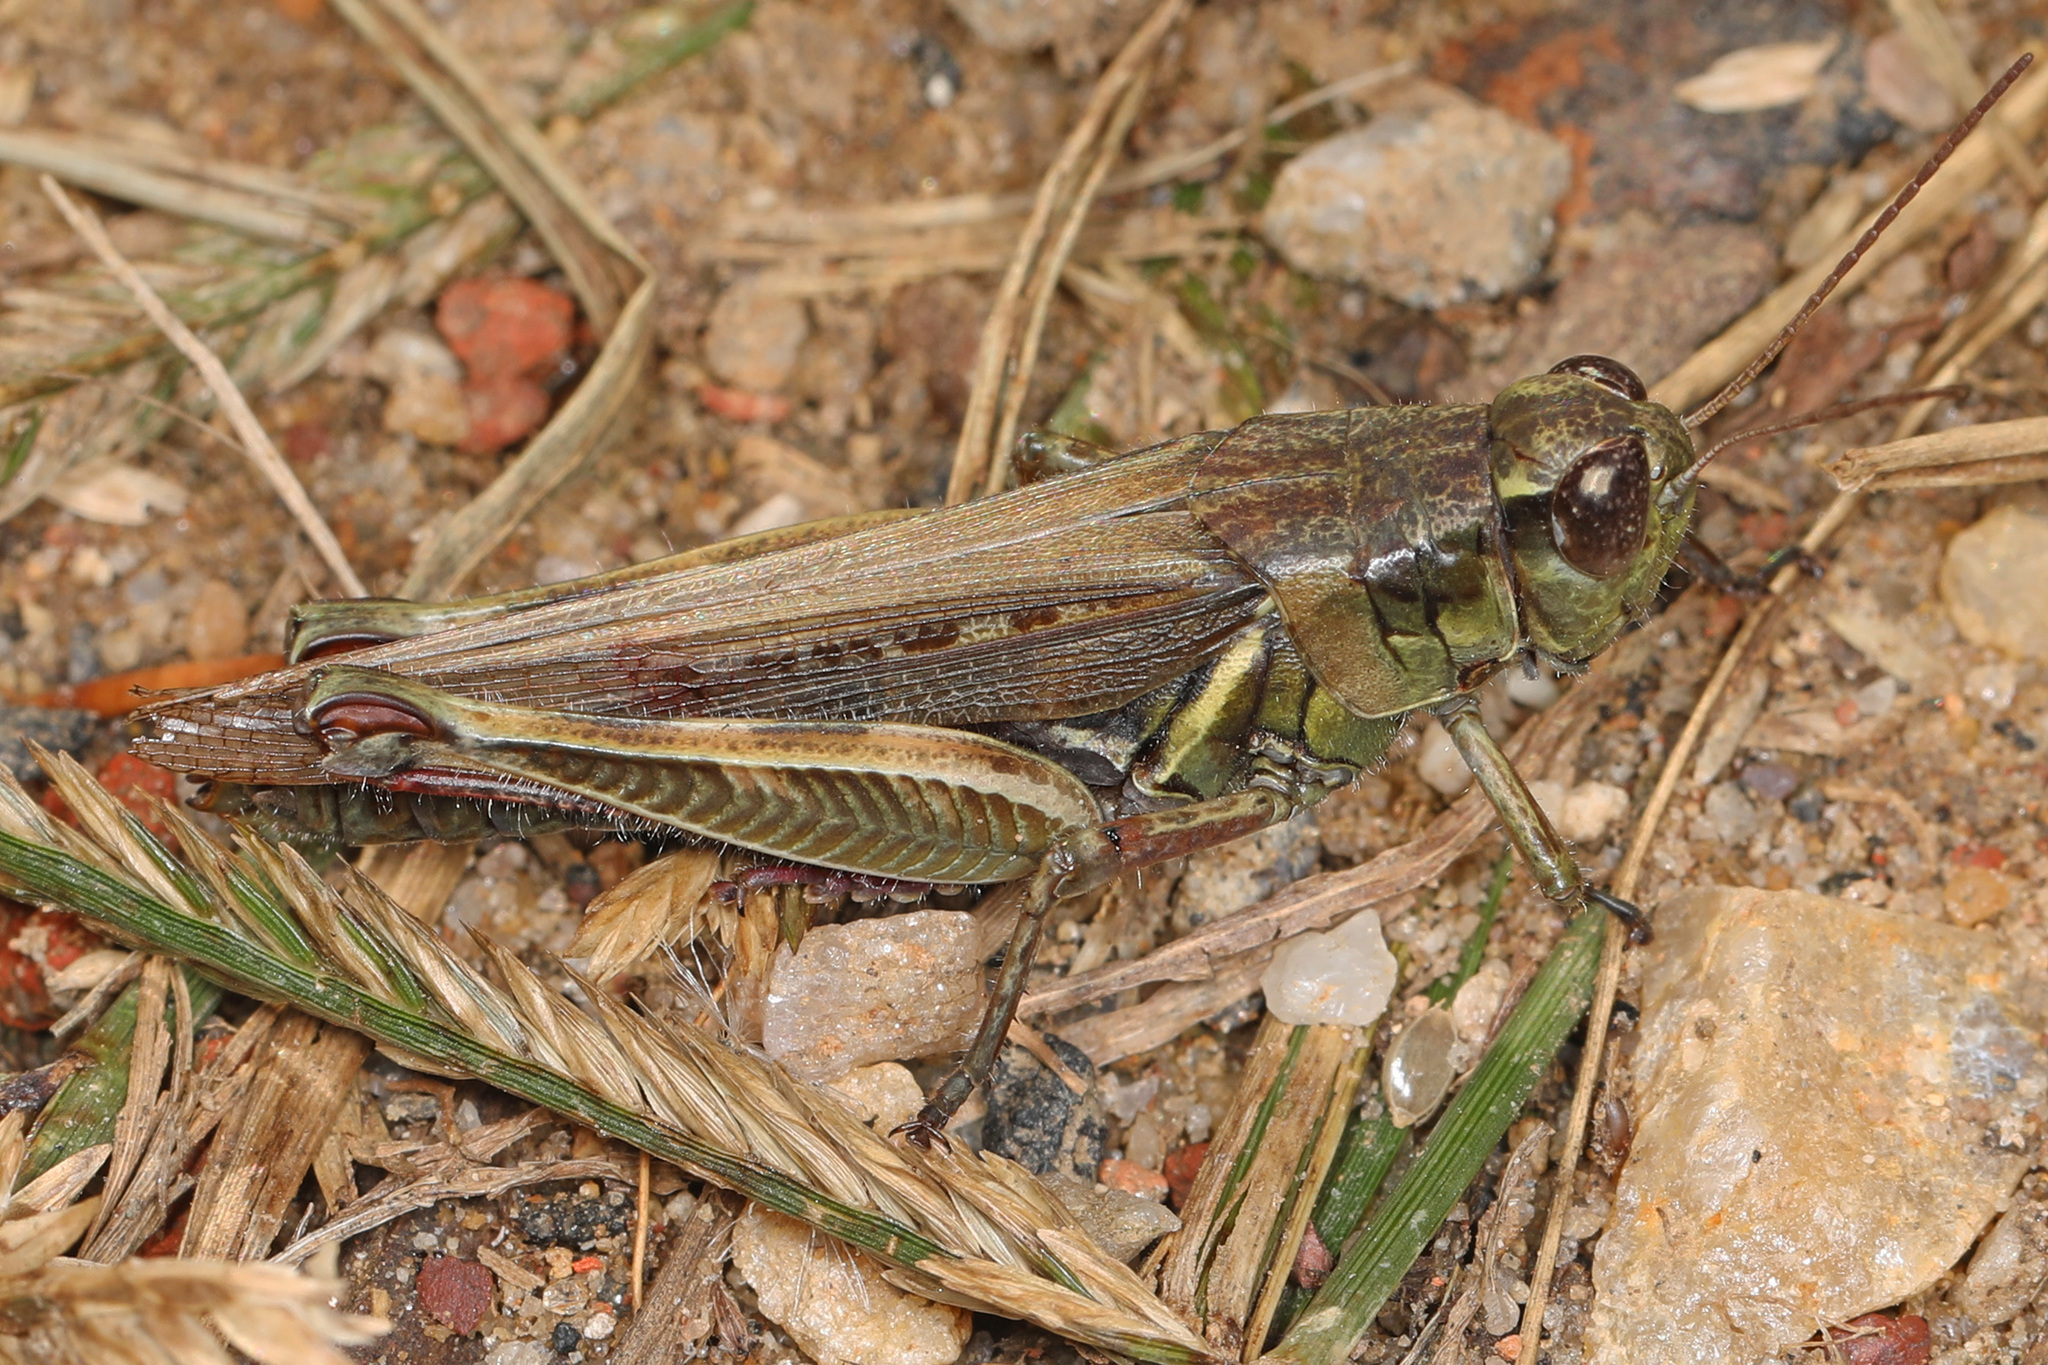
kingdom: Animalia
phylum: Arthropoda
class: Insecta
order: Orthoptera
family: Acrididae
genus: Melanoplus
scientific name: Melanoplus femurrubrum
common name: Red-legged grasshopper
